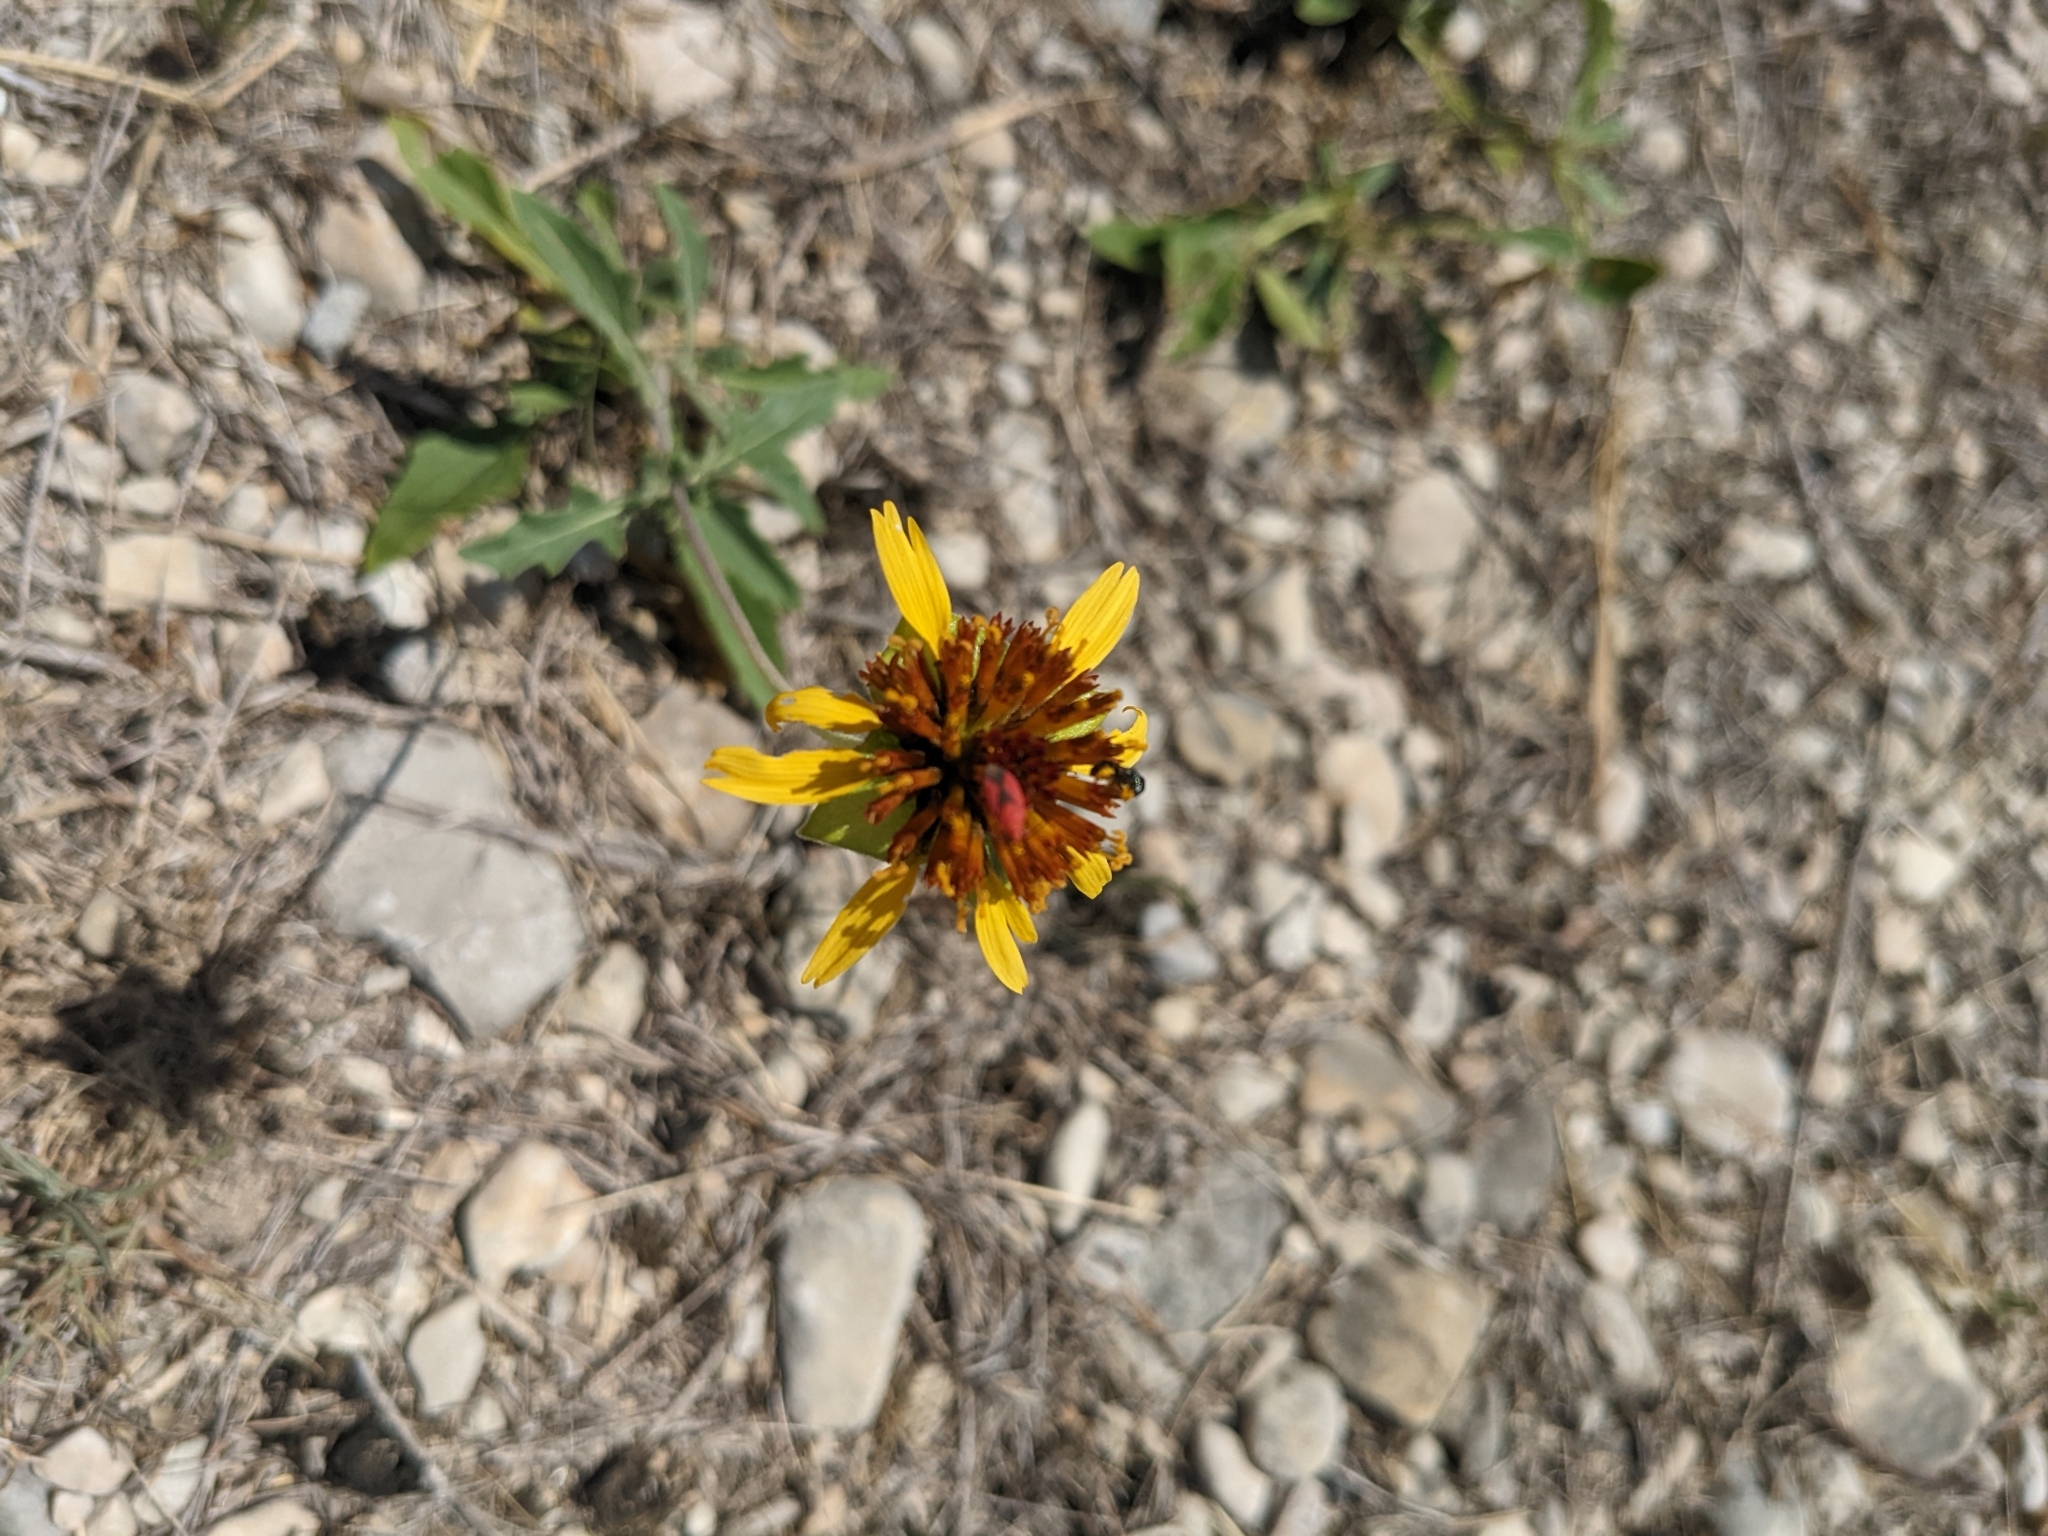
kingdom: Plantae
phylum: Tracheophyta
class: Magnoliopsida
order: Asterales
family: Asteraceae
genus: Tetragonotheca
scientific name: Tetragonotheca texana
